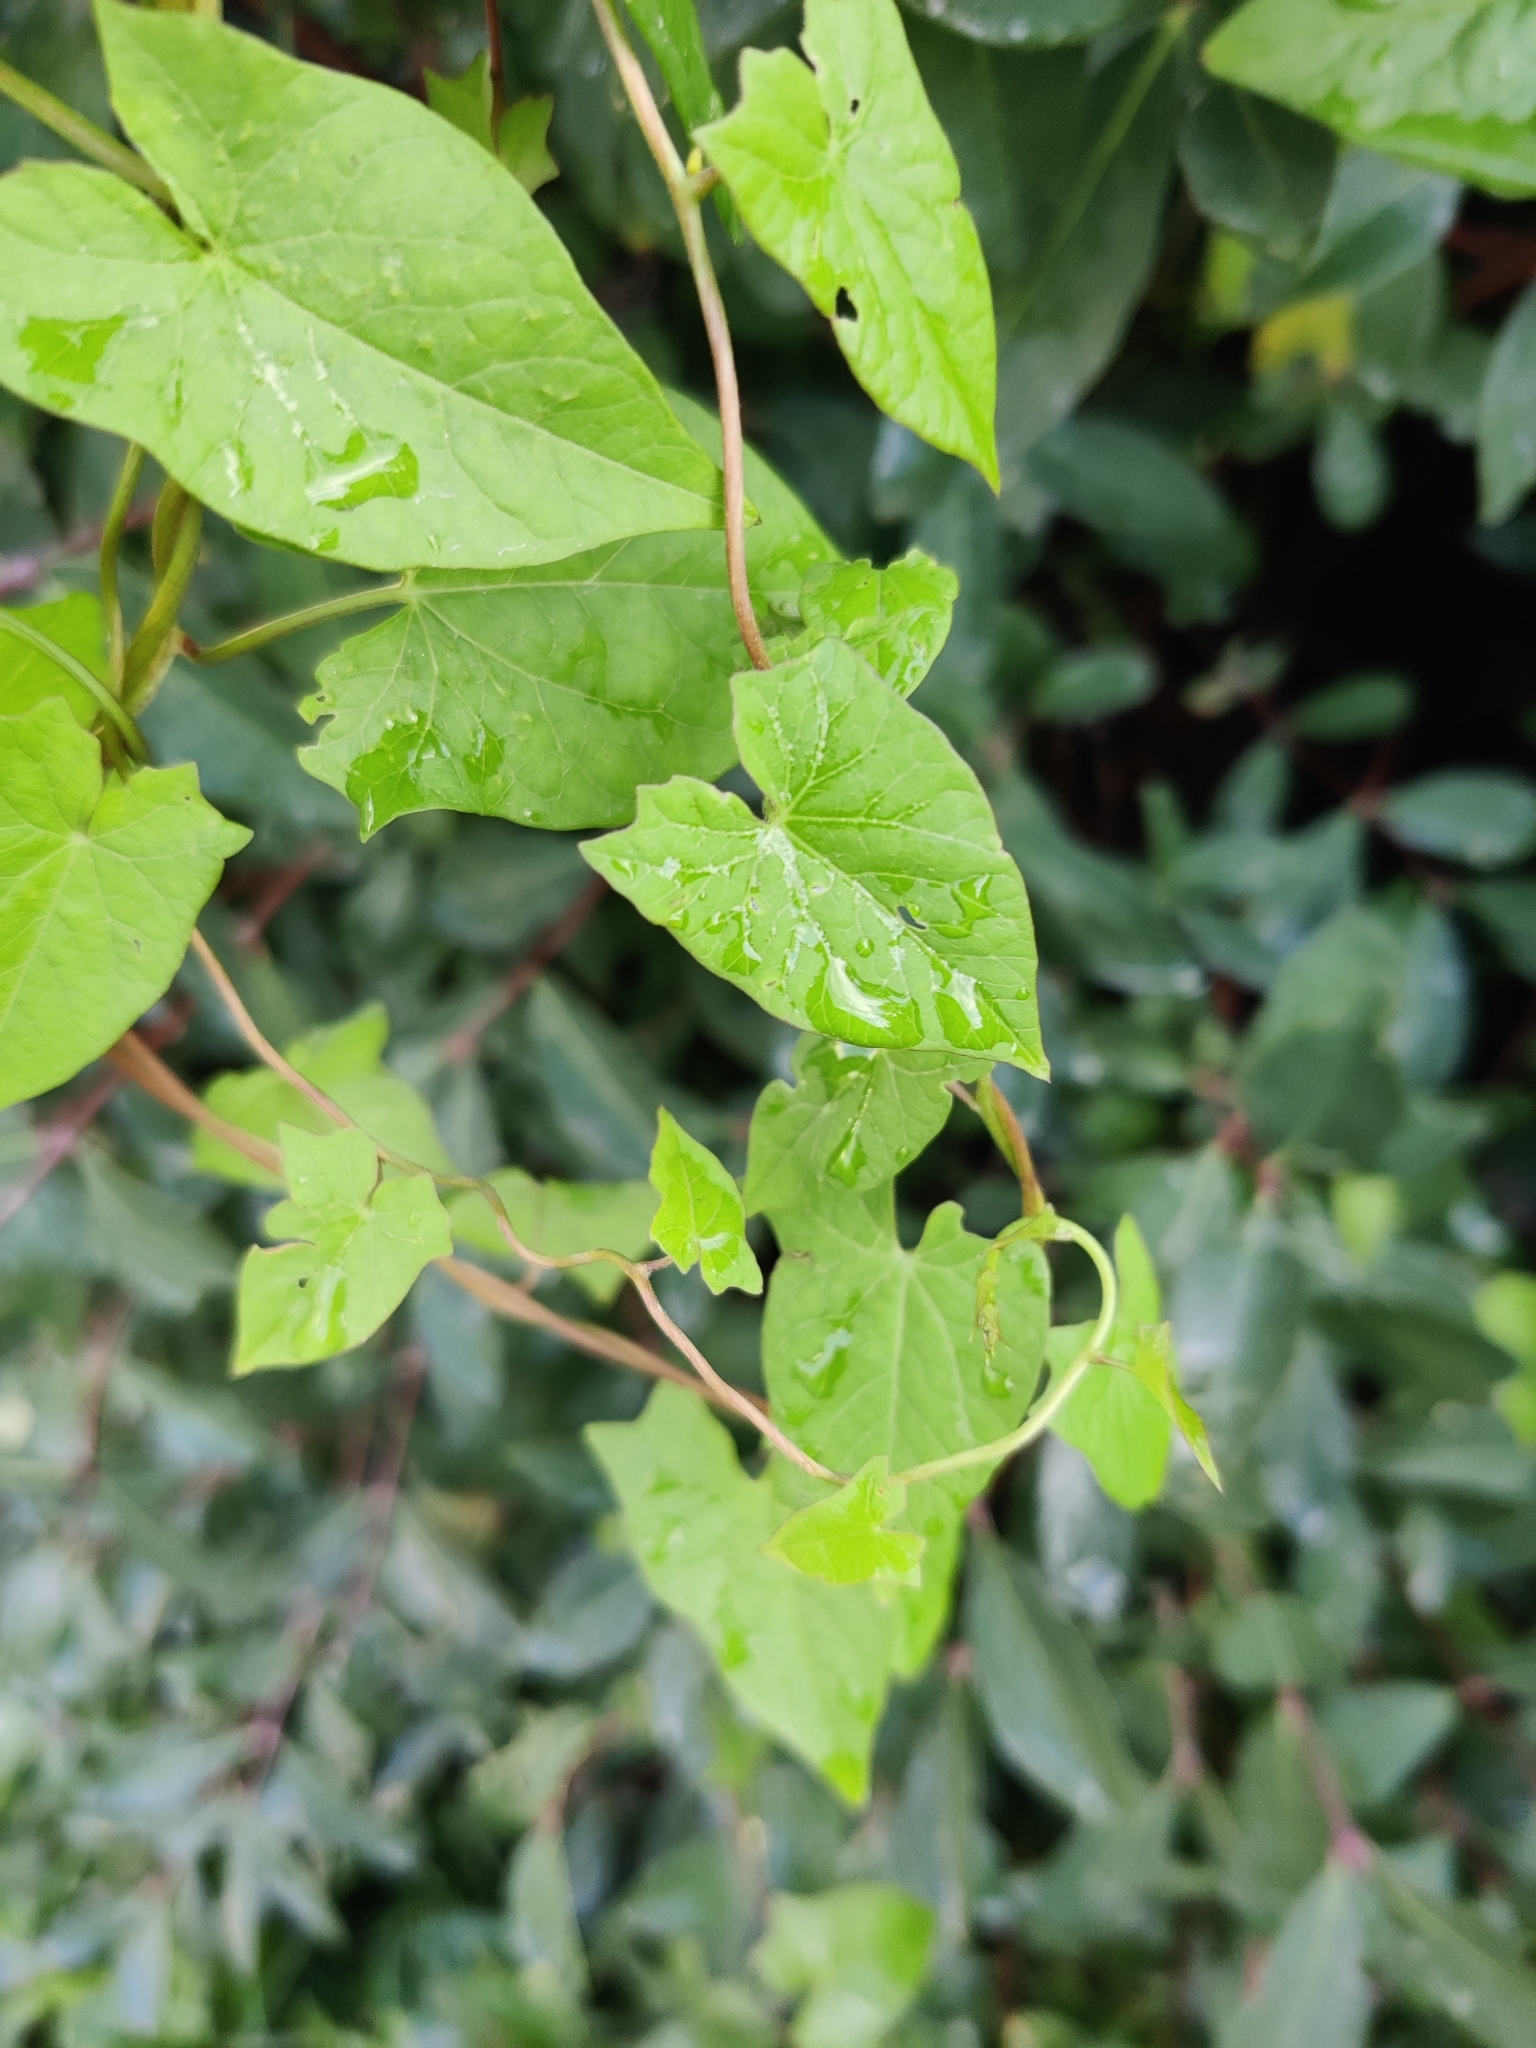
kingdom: Plantae
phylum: Tracheophyta
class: Magnoliopsida
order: Solanales
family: Convolvulaceae
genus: Calystegia
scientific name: Calystegia sepium
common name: Hedge bindweed
